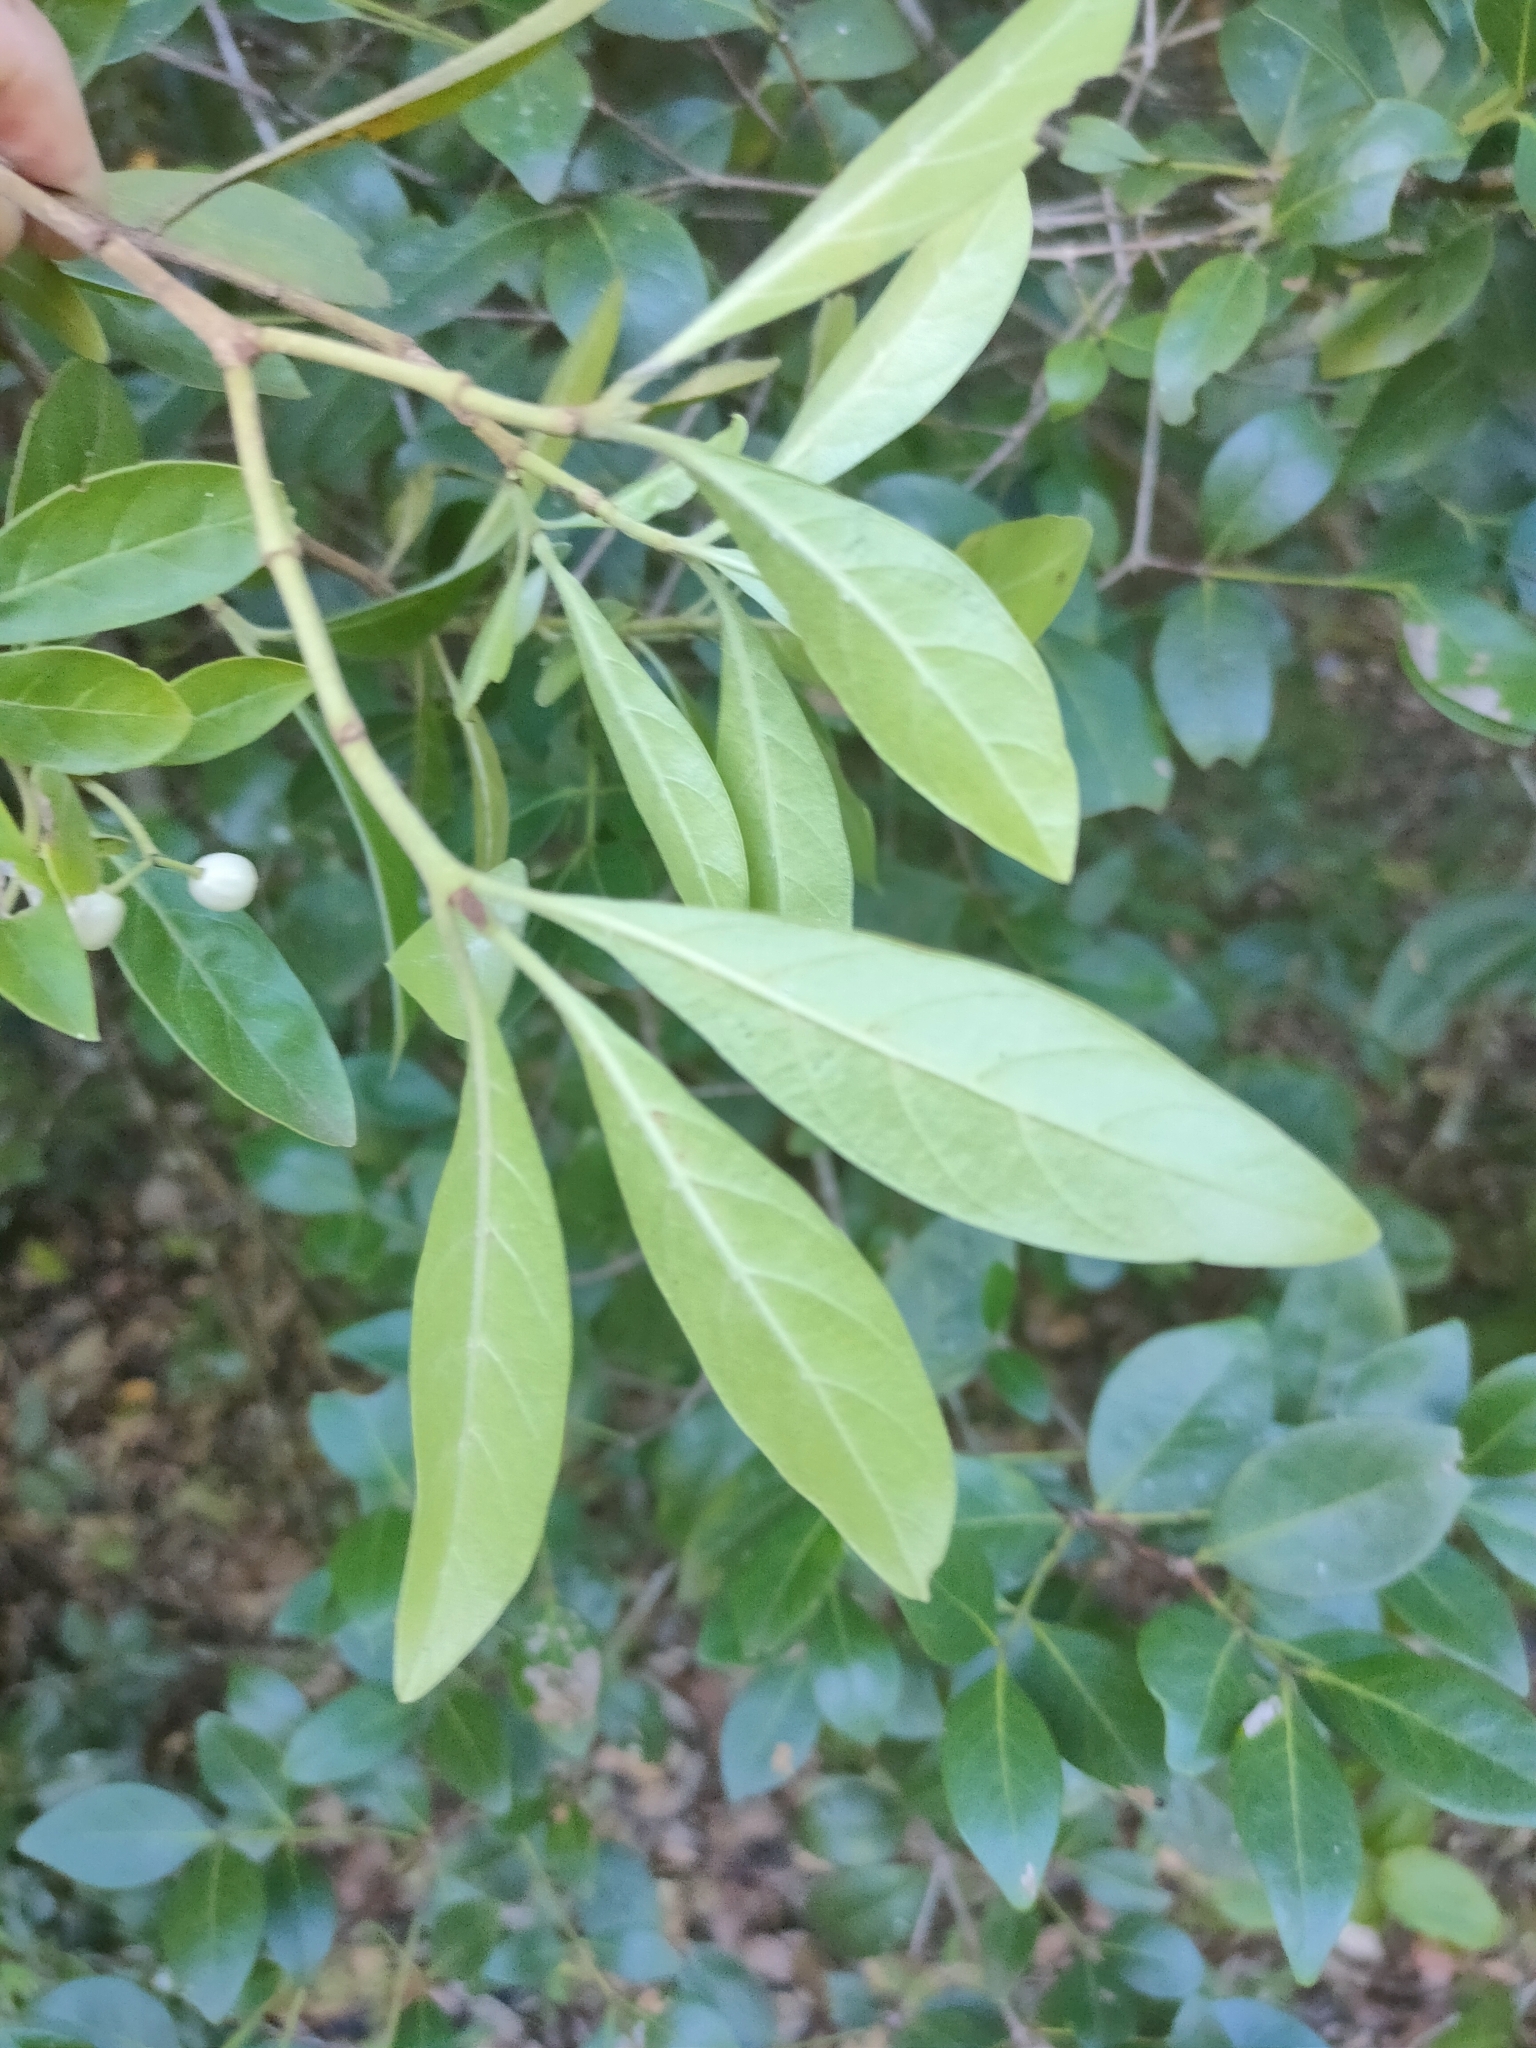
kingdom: Plantae
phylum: Tracheophyta
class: Magnoliopsida
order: Gentianales
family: Rubiaceae
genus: Psychotria
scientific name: Psychotria daphnoides
